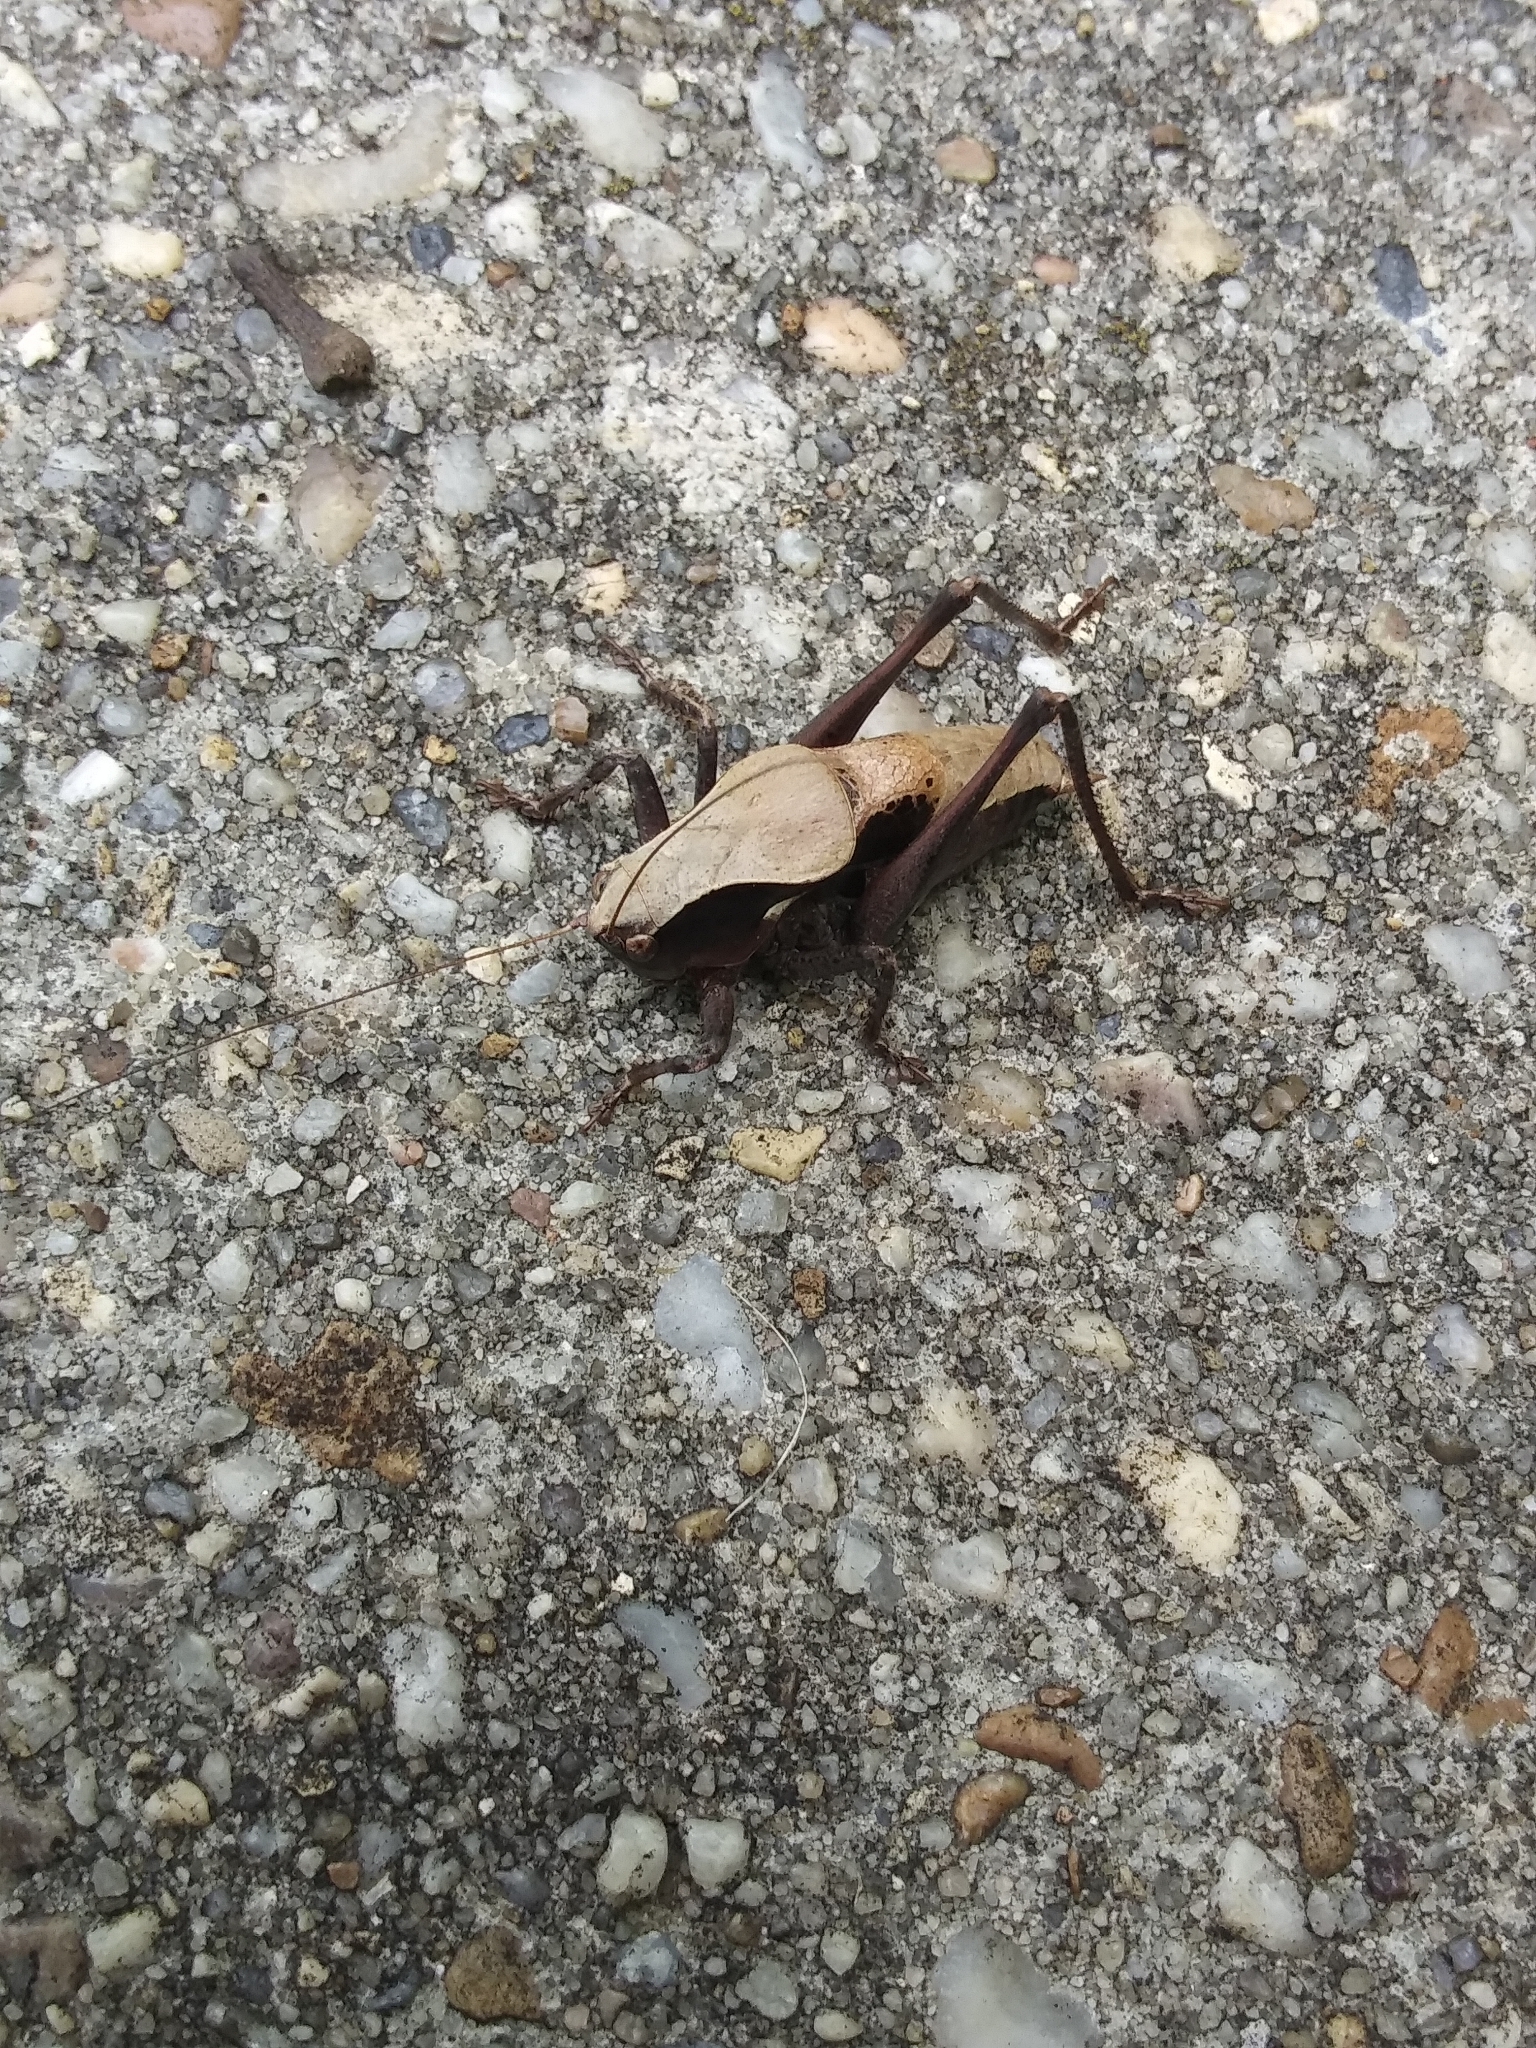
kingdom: Animalia
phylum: Arthropoda
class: Insecta
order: Orthoptera
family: Tettigoniidae
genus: Atlanticus
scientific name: Atlanticus testaceus
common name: Protean shieldback
